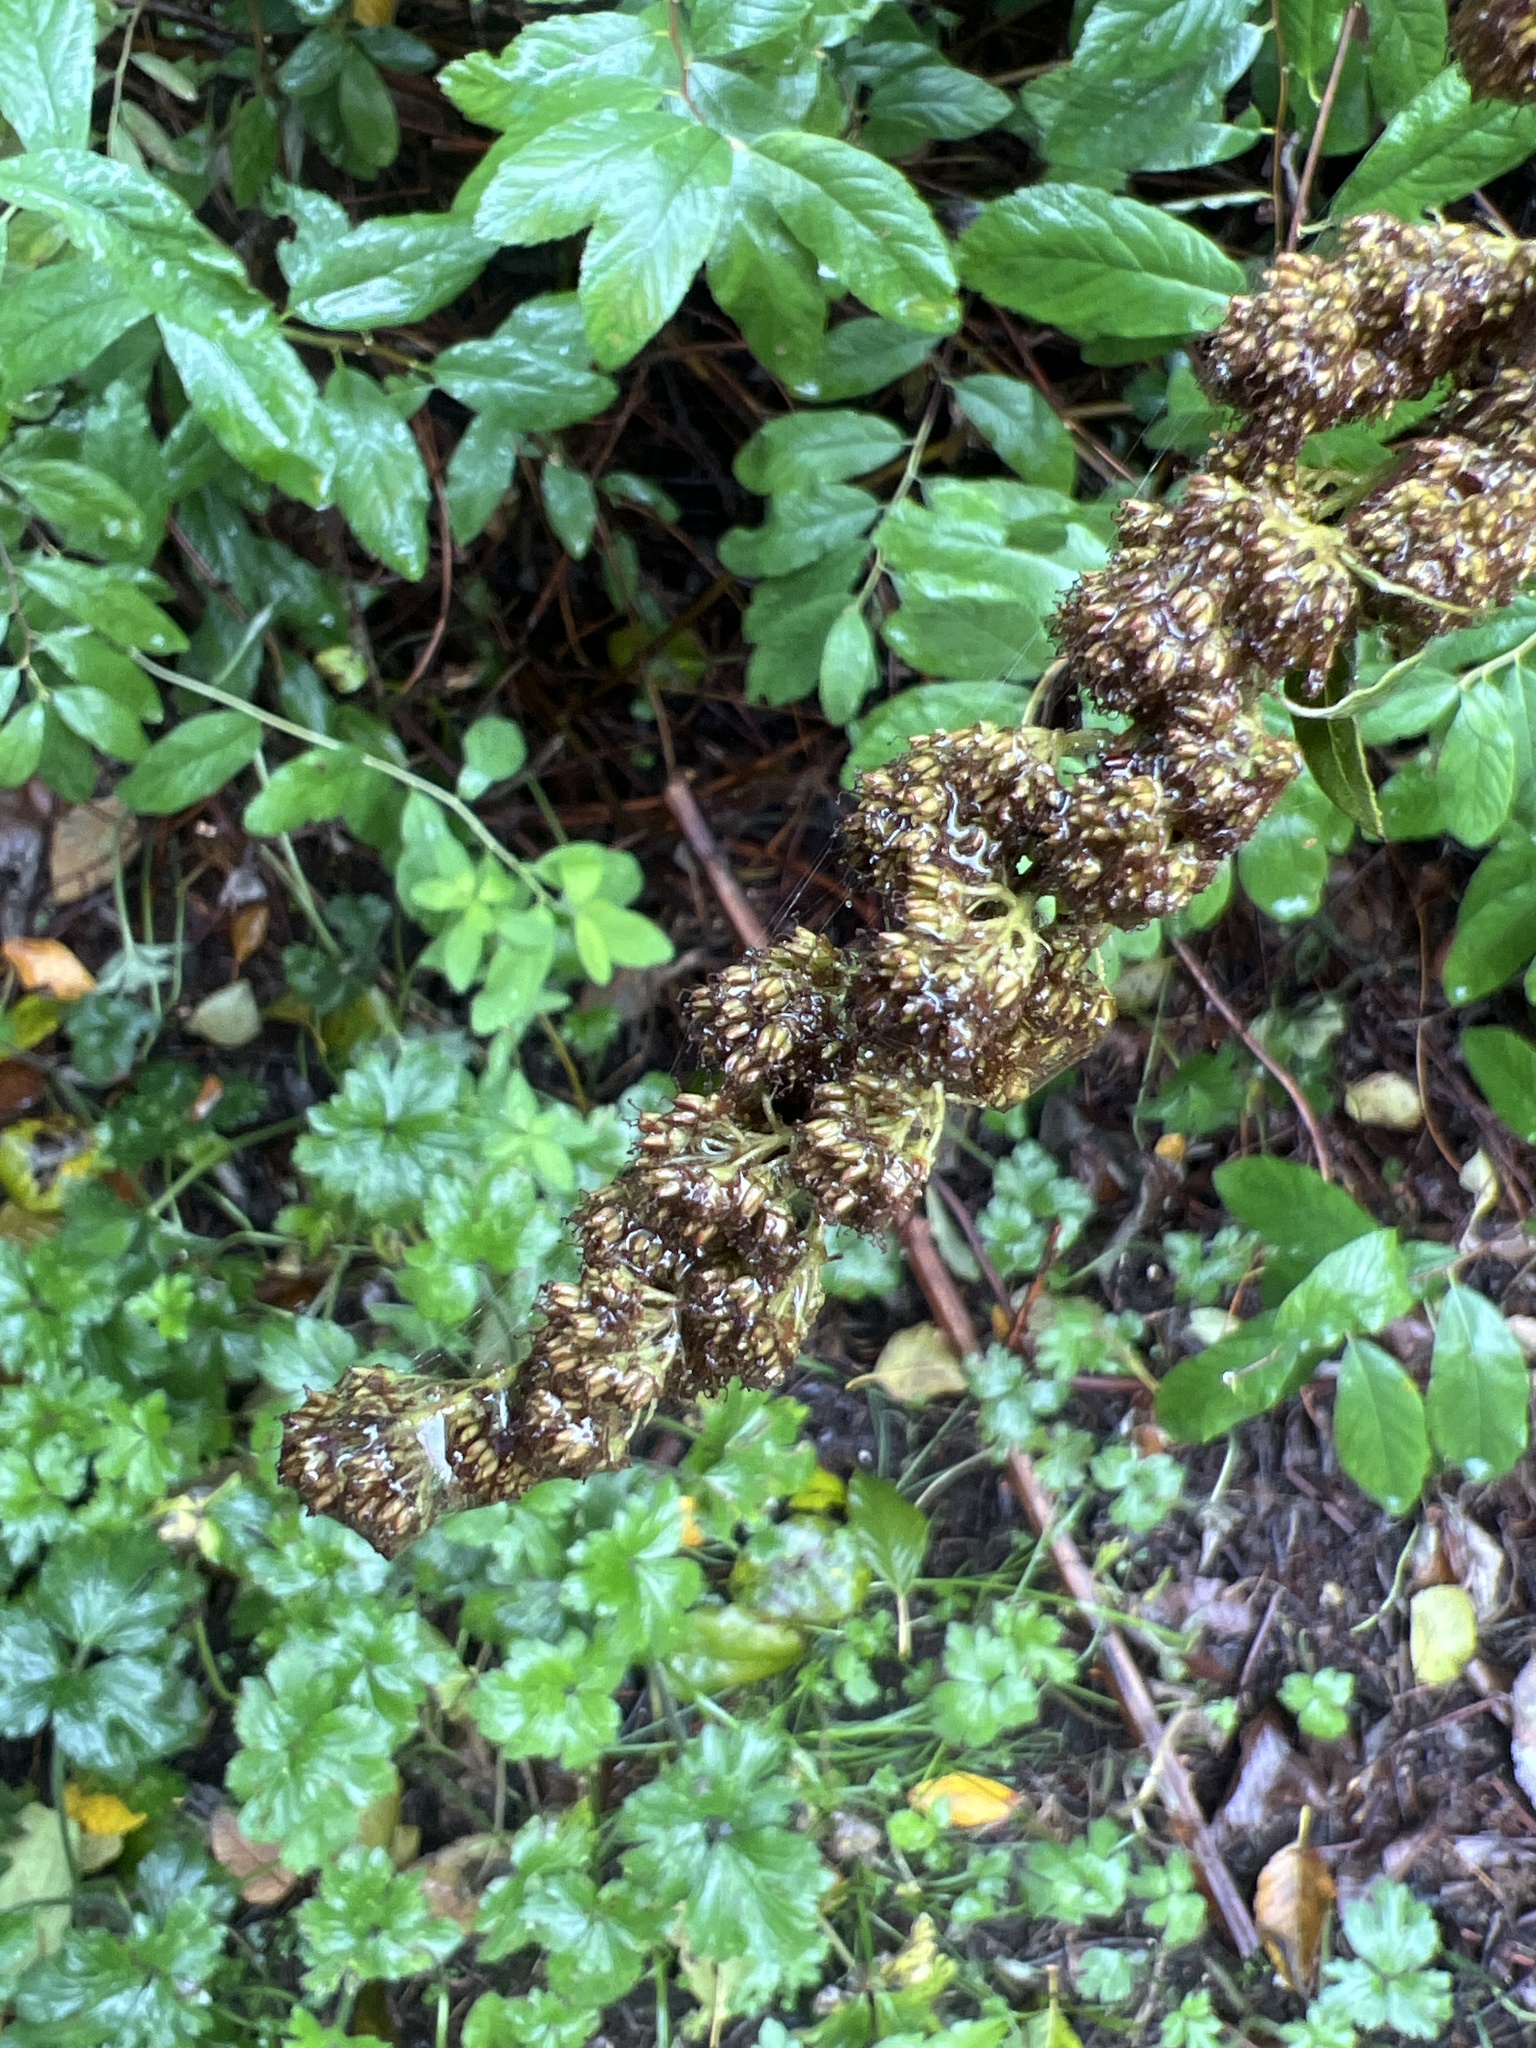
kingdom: Plantae
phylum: Tracheophyta
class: Magnoliopsida
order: Rosales
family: Rosaceae
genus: Spiraea
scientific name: Spiraea douglasii
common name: Steeplebush
